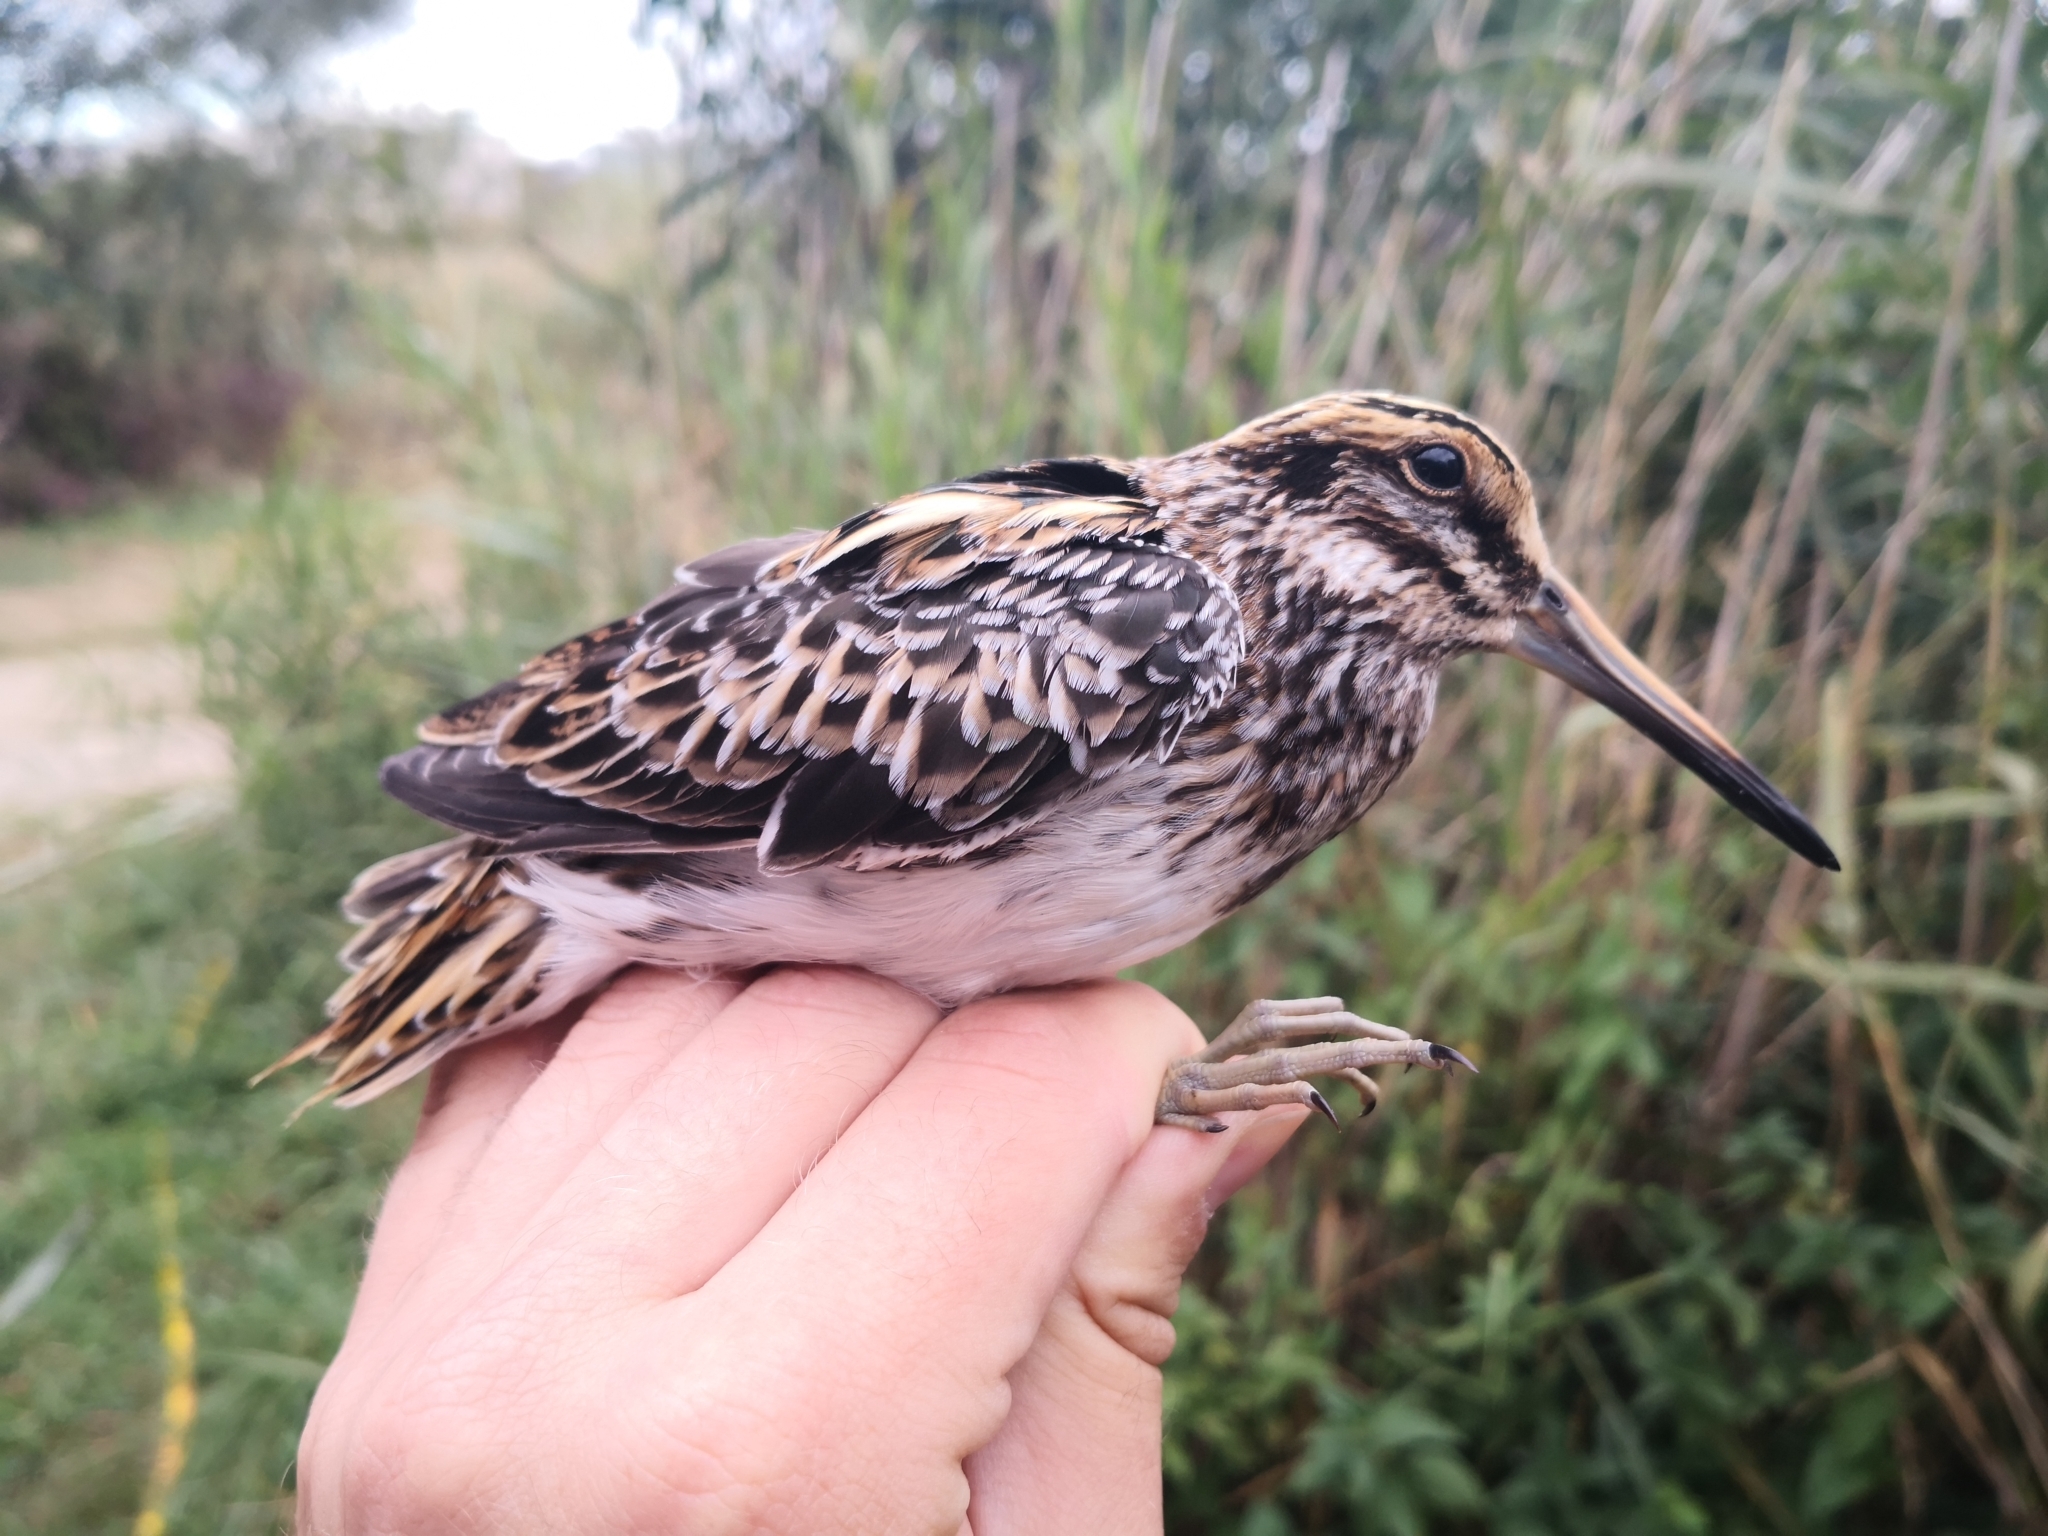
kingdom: Animalia
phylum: Chordata
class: Aves
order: Charadriiformes
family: Scolopacidae
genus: Lymnocryptes
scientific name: Lymnocryptes minimus
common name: Jack snipe
